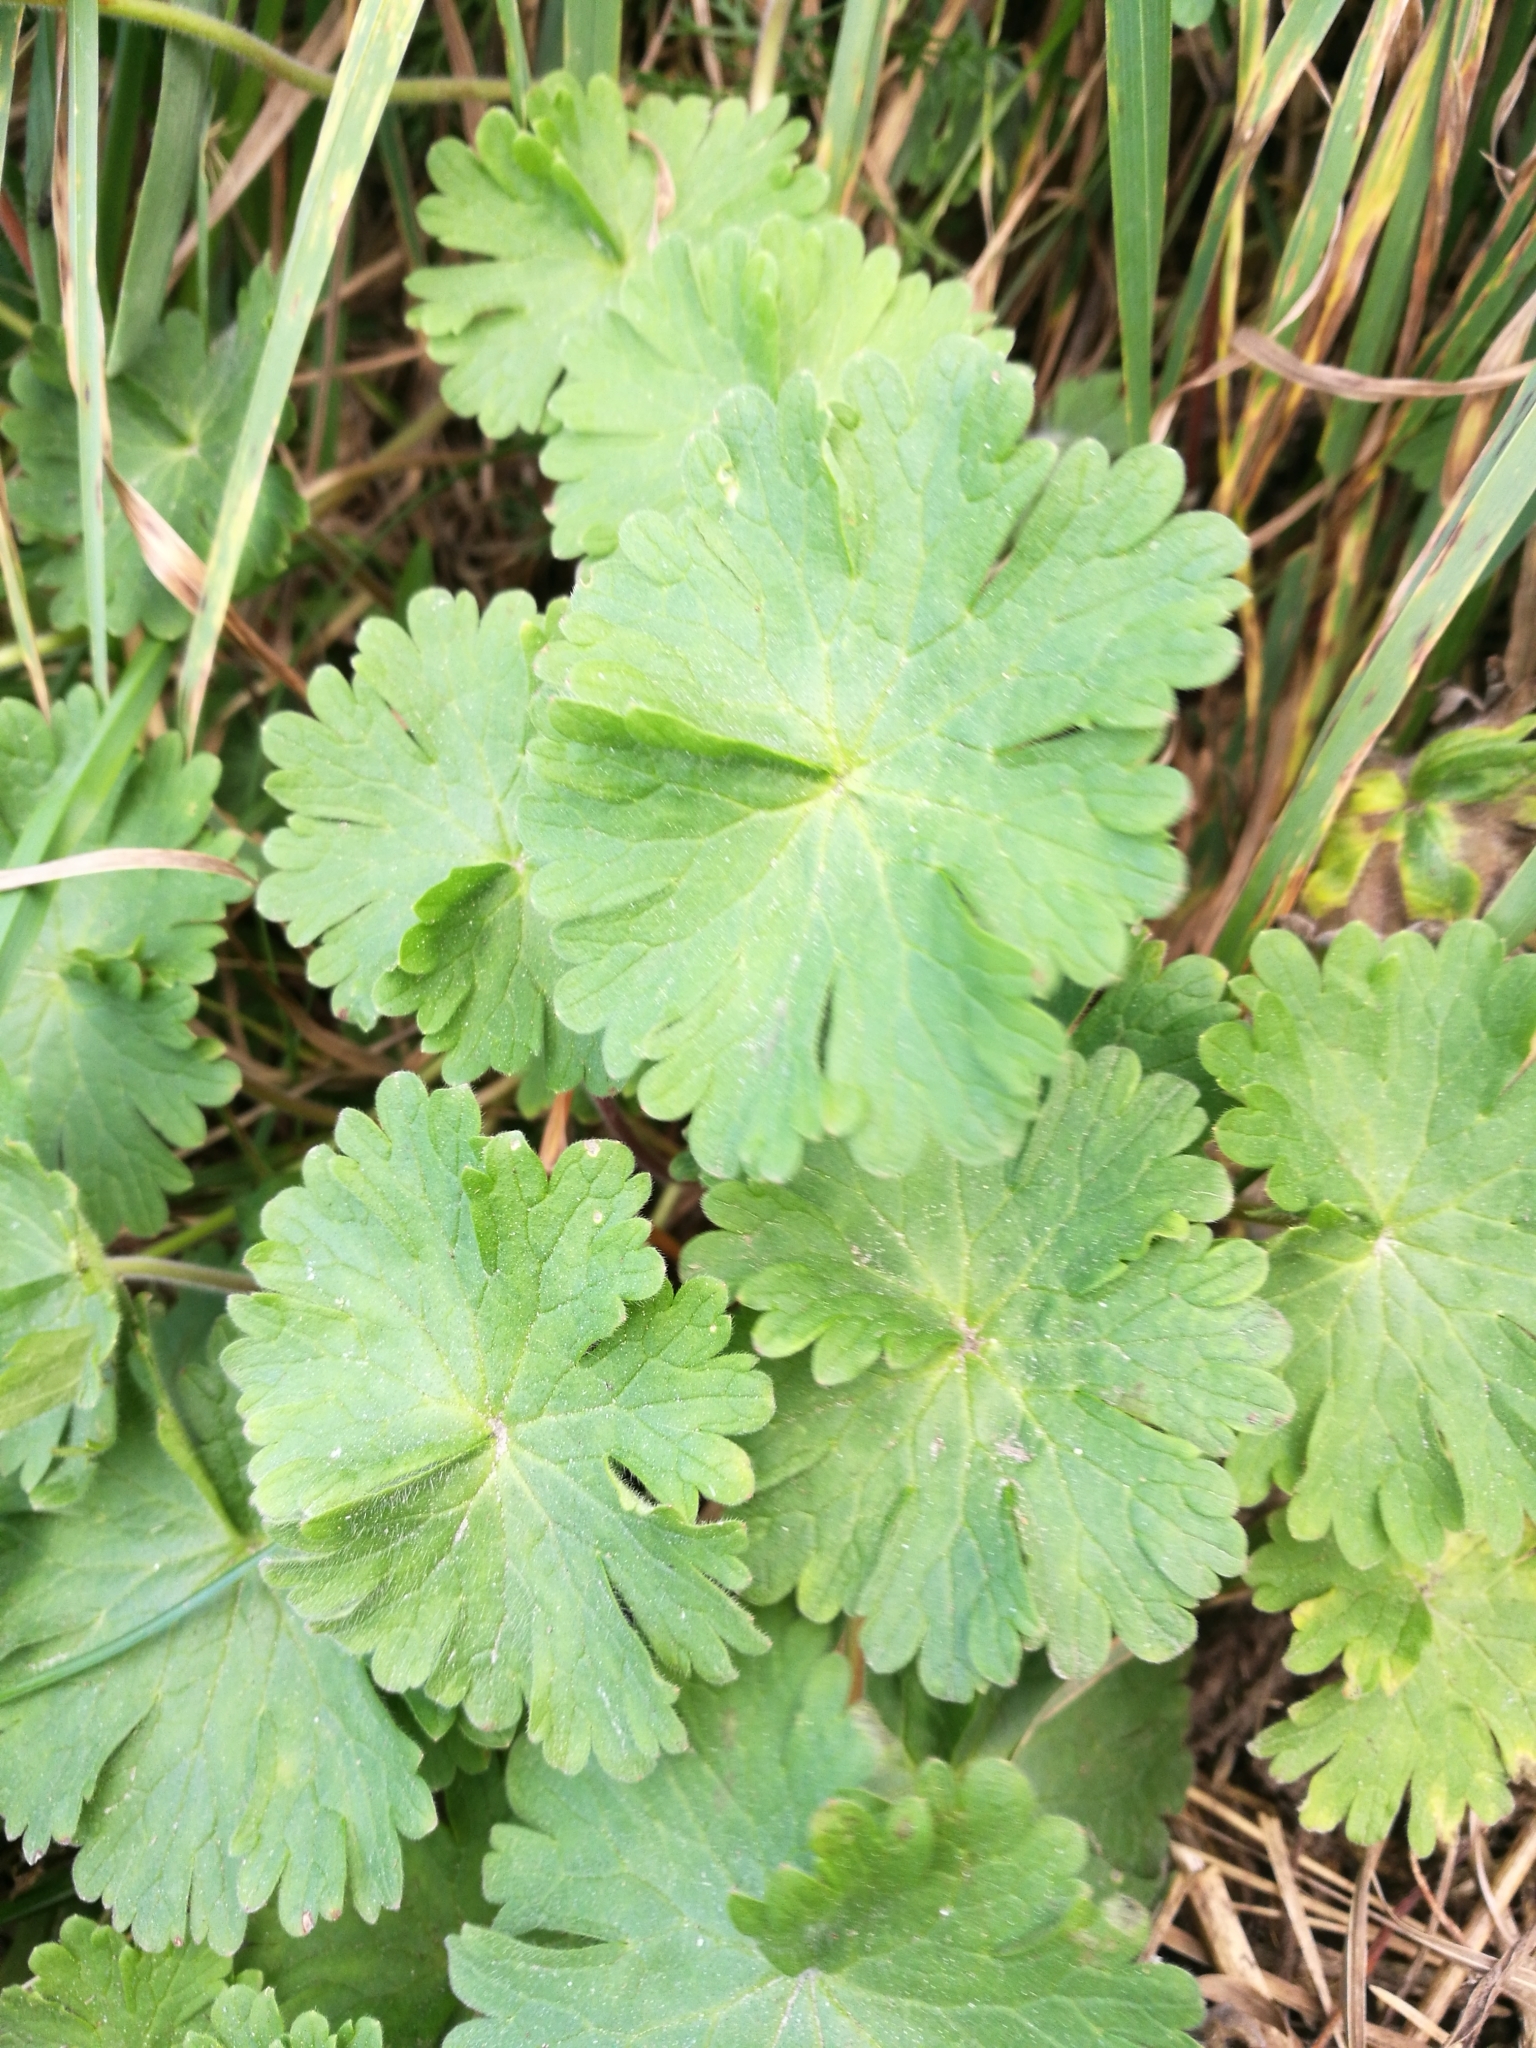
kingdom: Plantae
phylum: Tracheophyta
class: Magnoliopsida
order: Geraniales
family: Geraniaceae
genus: Geranium
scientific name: Geranium molle
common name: Dove's-foot crane's-bill
